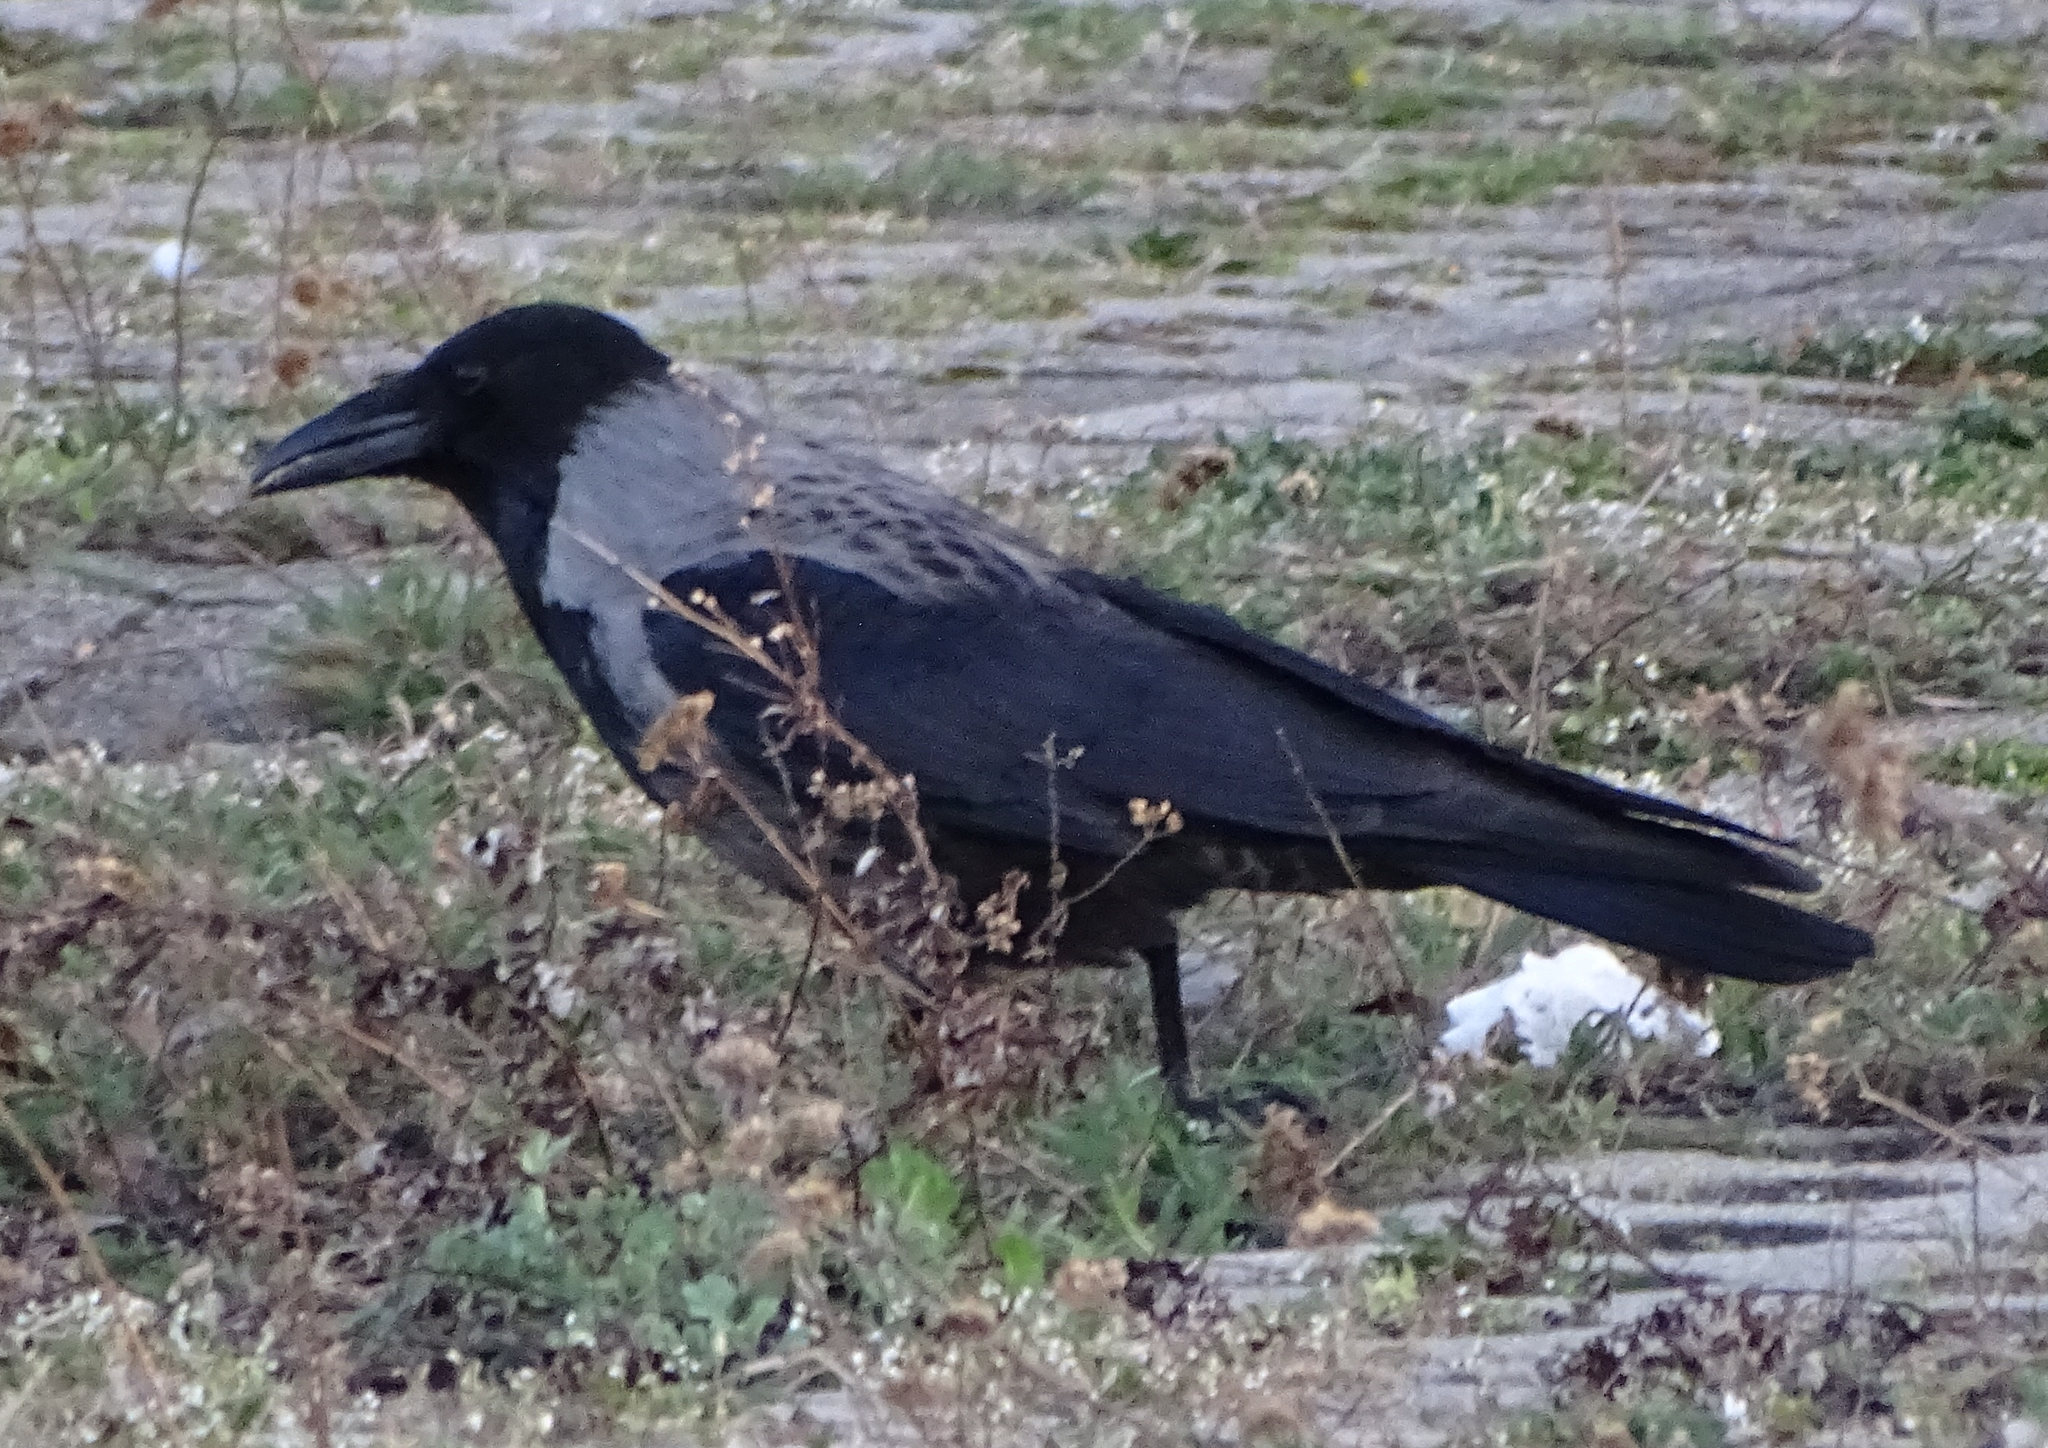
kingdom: Animalia
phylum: Chordata
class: Aves
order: Passeriformes
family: Corvidae
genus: Corvus
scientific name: Corvus
